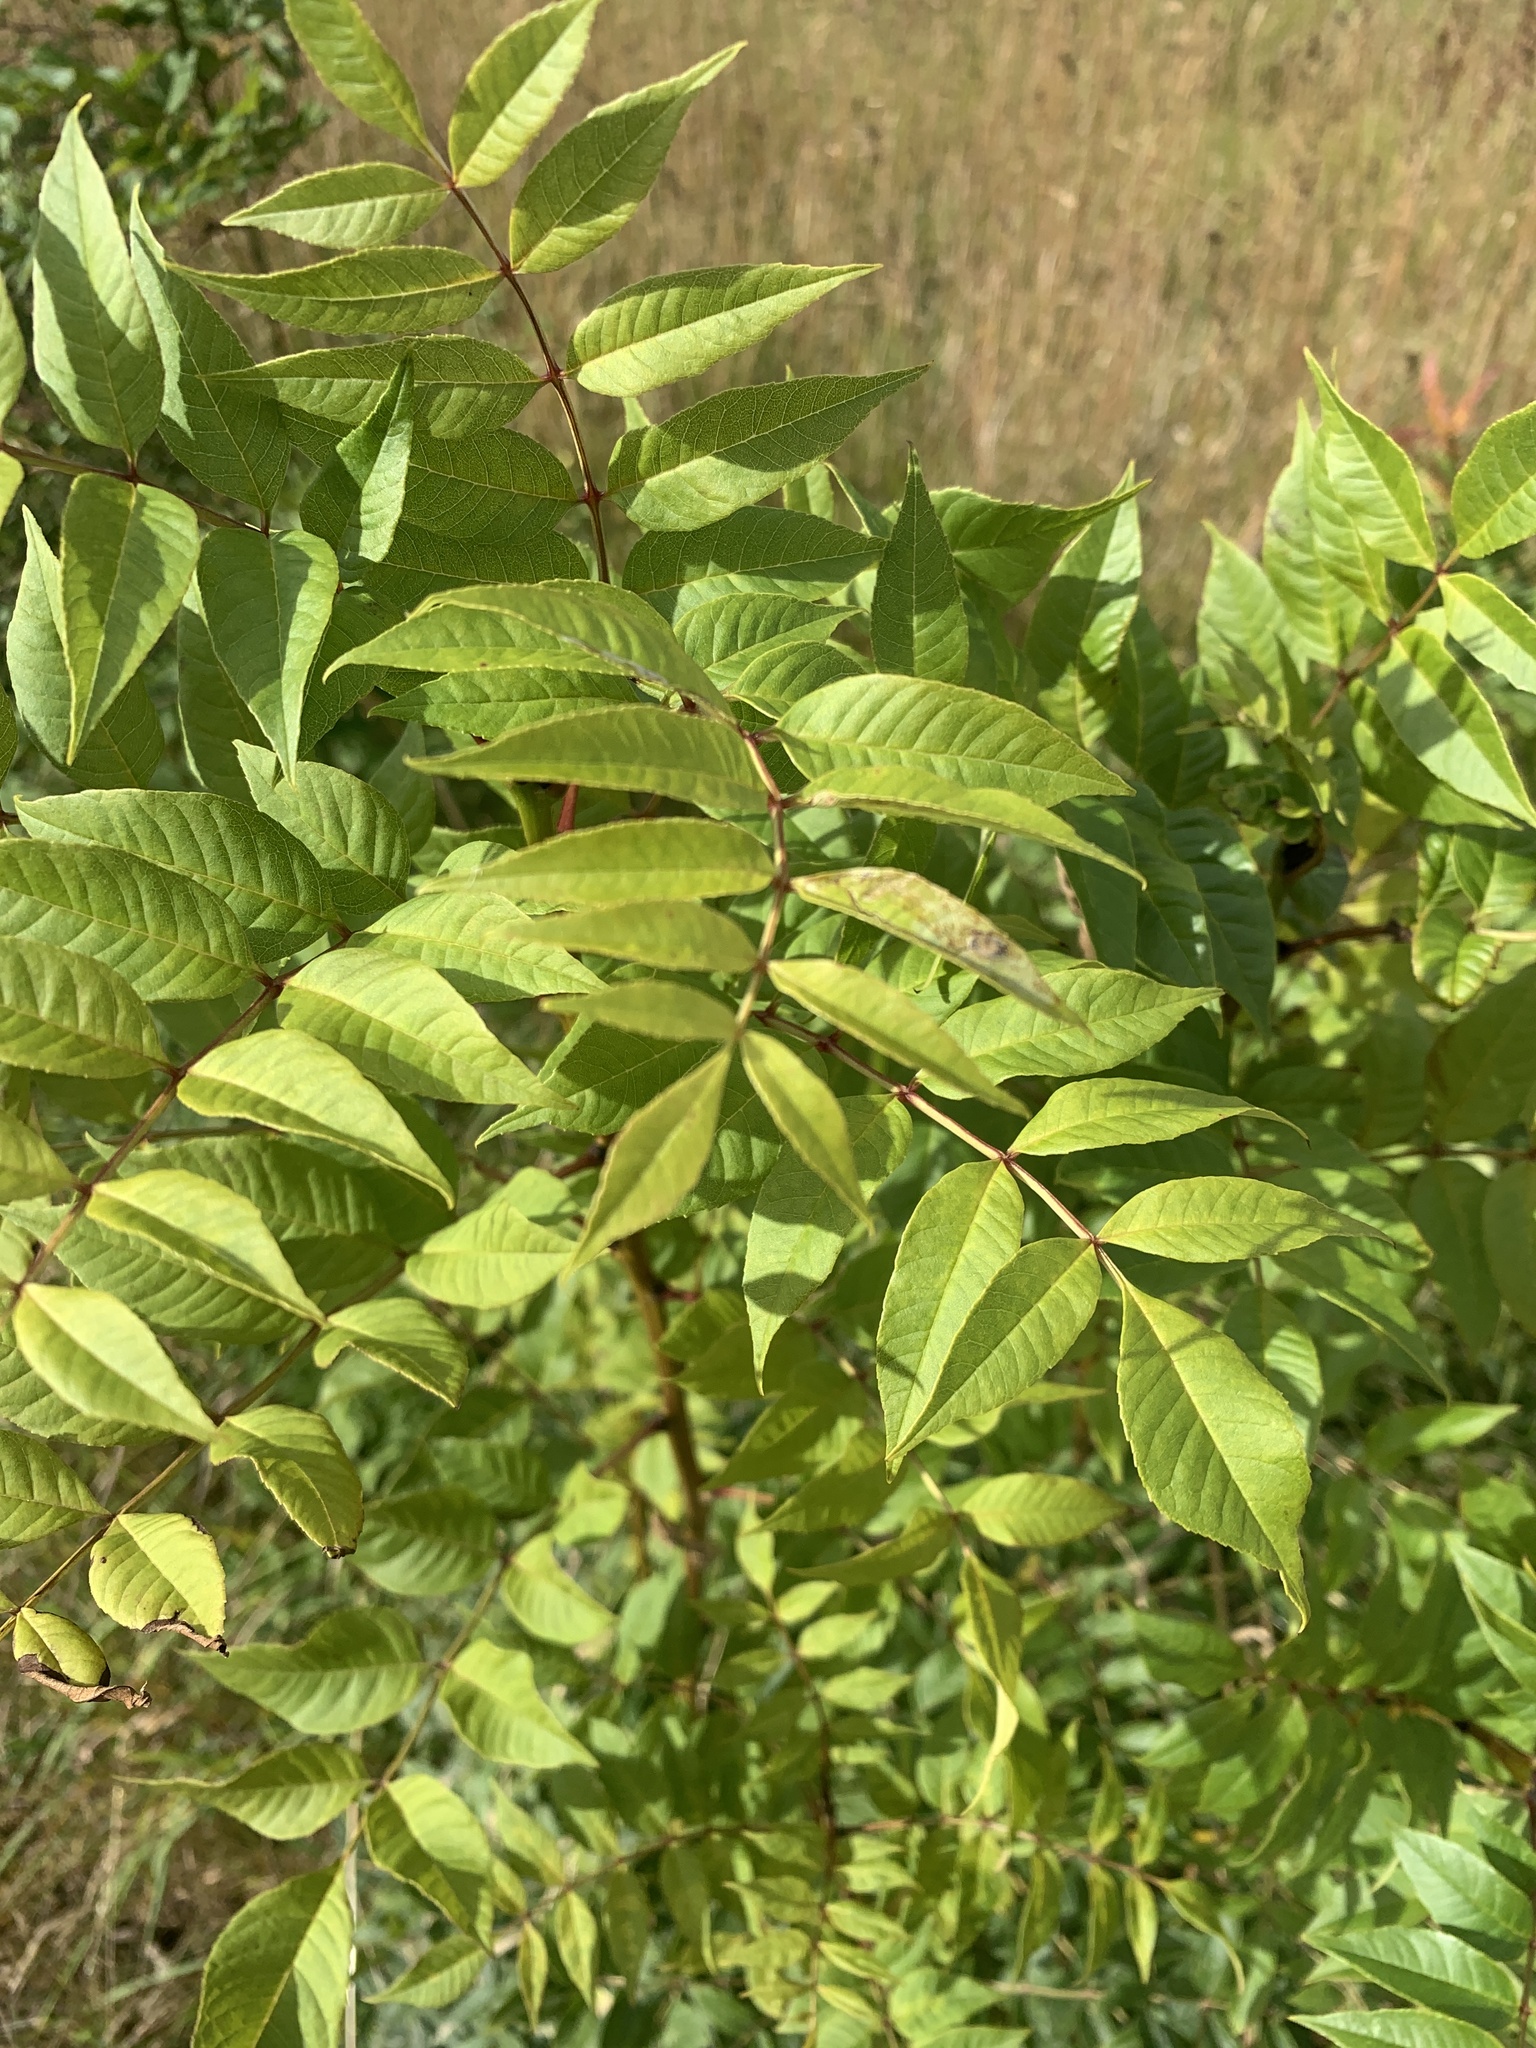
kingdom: Plantae
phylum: Tracheophyta
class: Magnoliopsida
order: Lamiales
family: Oleaceae
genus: Fraxinus
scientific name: Fraxinus excelsior
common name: European ash
